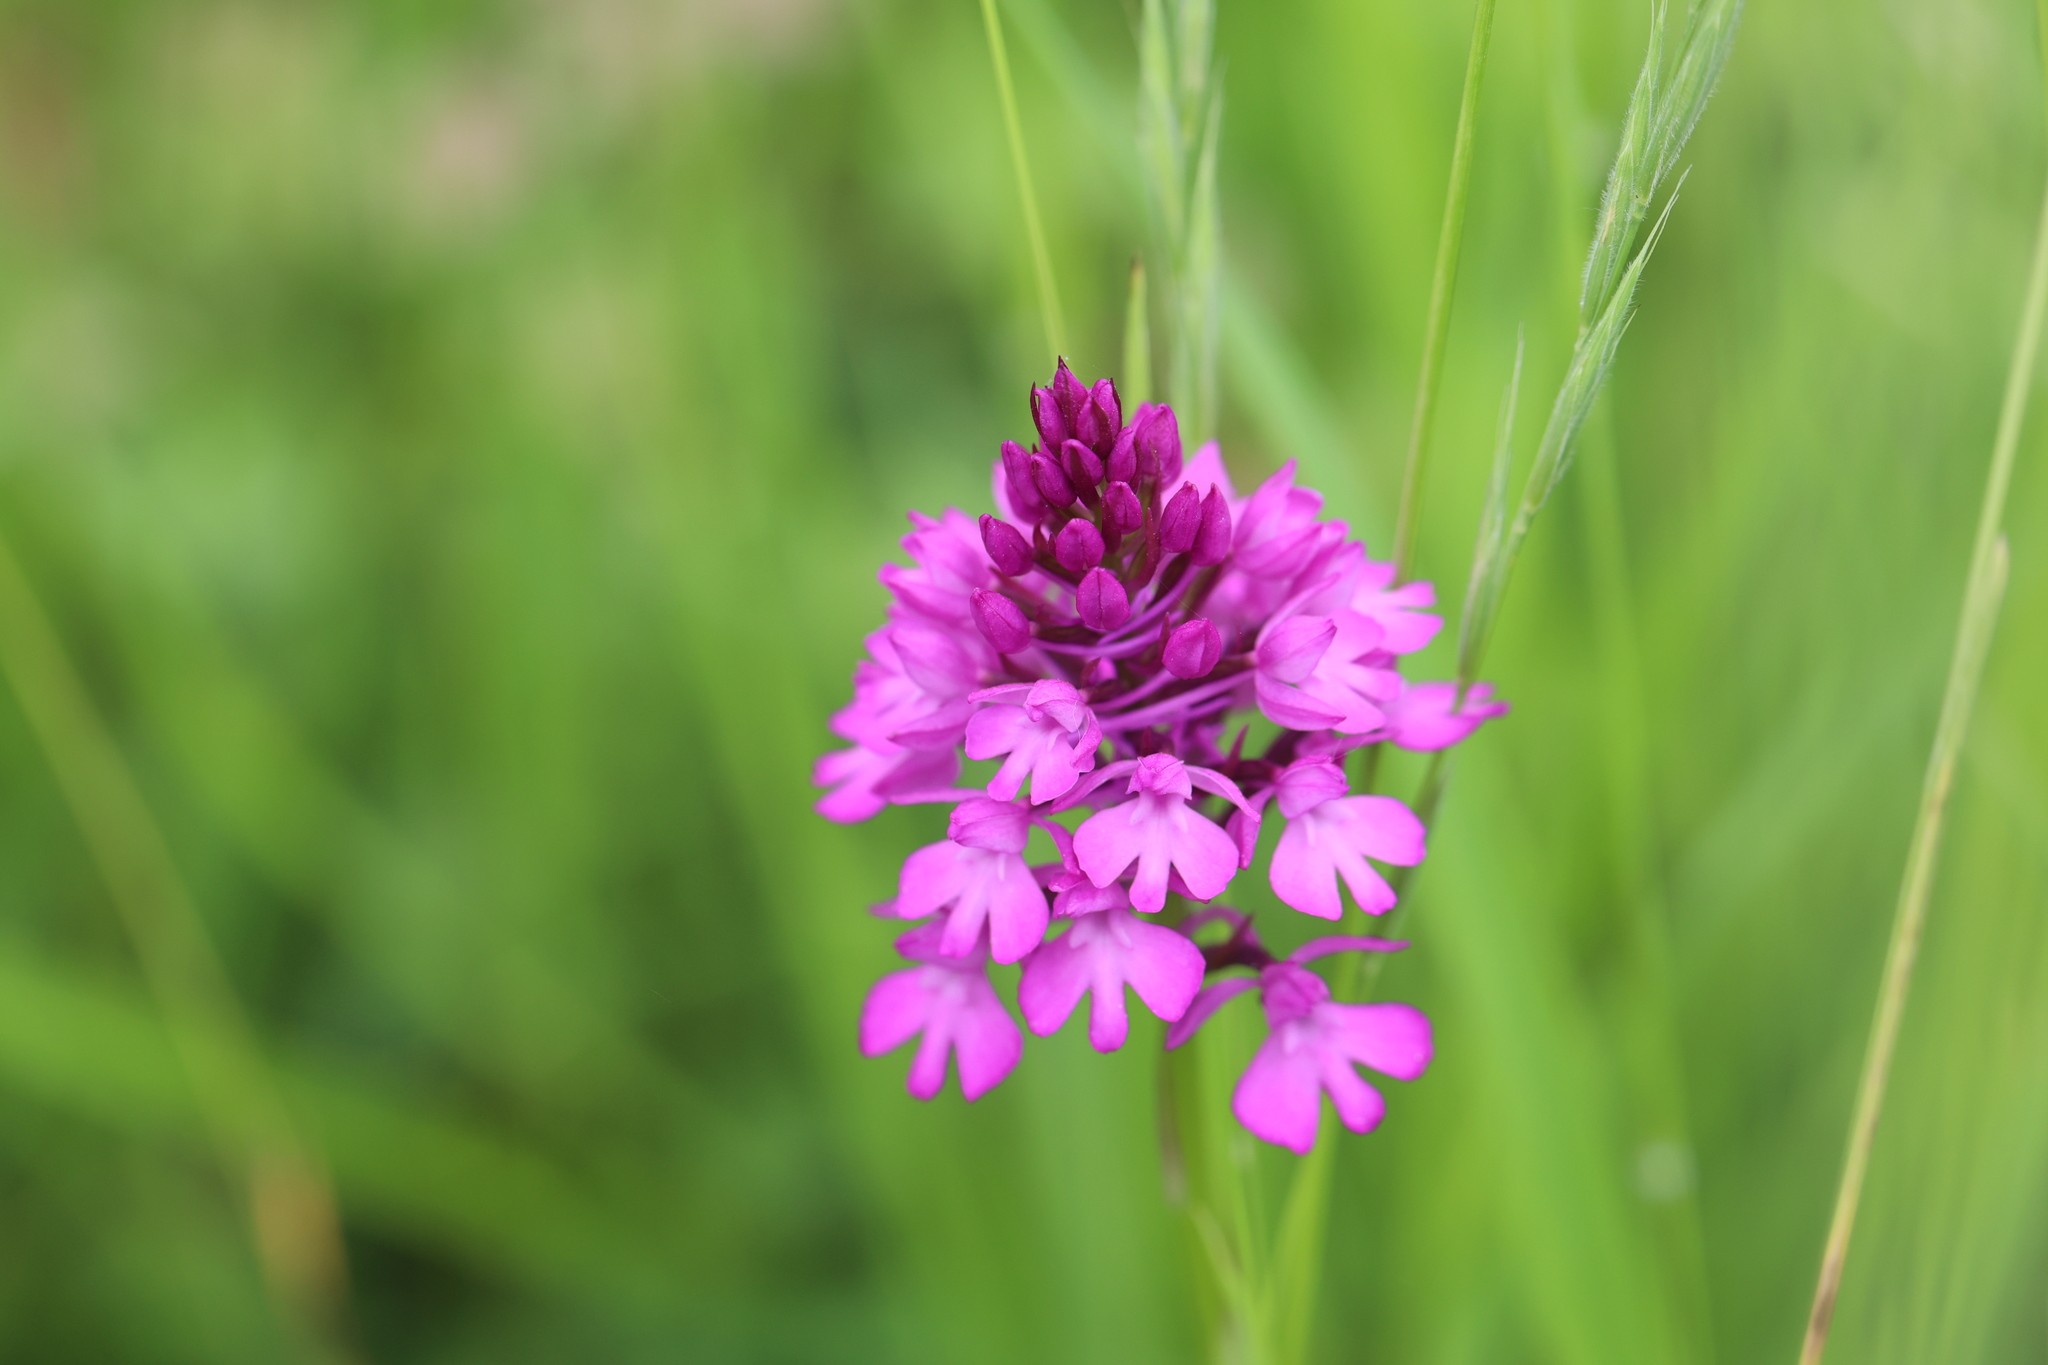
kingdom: Plantae
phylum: Tracheophyta
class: Liliopsida
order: Asparagales
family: Orchidaceae
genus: Anacamptis
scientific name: Anacamptis pyramidalis
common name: Pyramidal orchid
